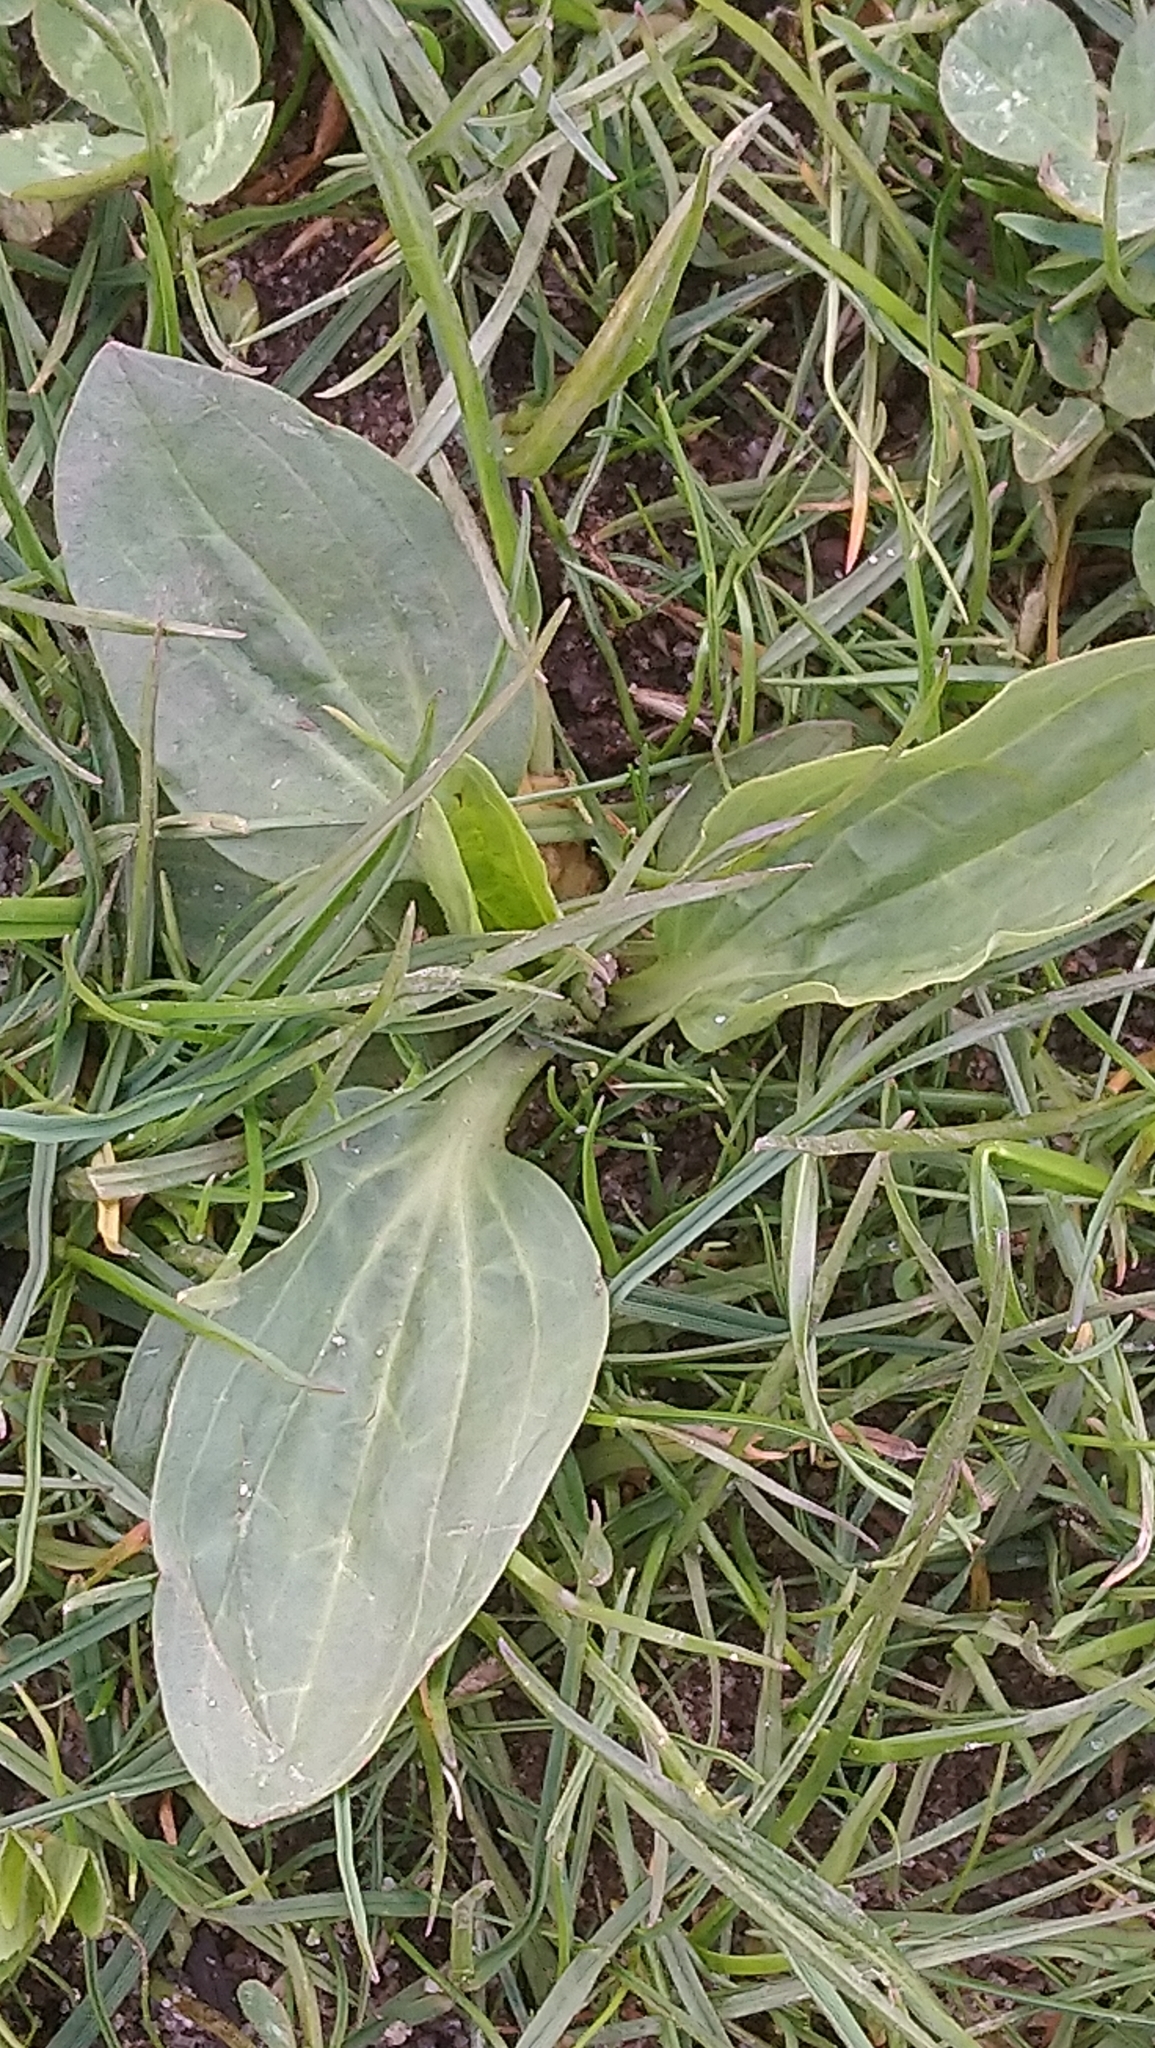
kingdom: Plantae
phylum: Tracheophyta
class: Magnoliopsida
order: Lamiales
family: Plantaginaceae
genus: Plantago
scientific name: Plantago major
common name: Common plantain
